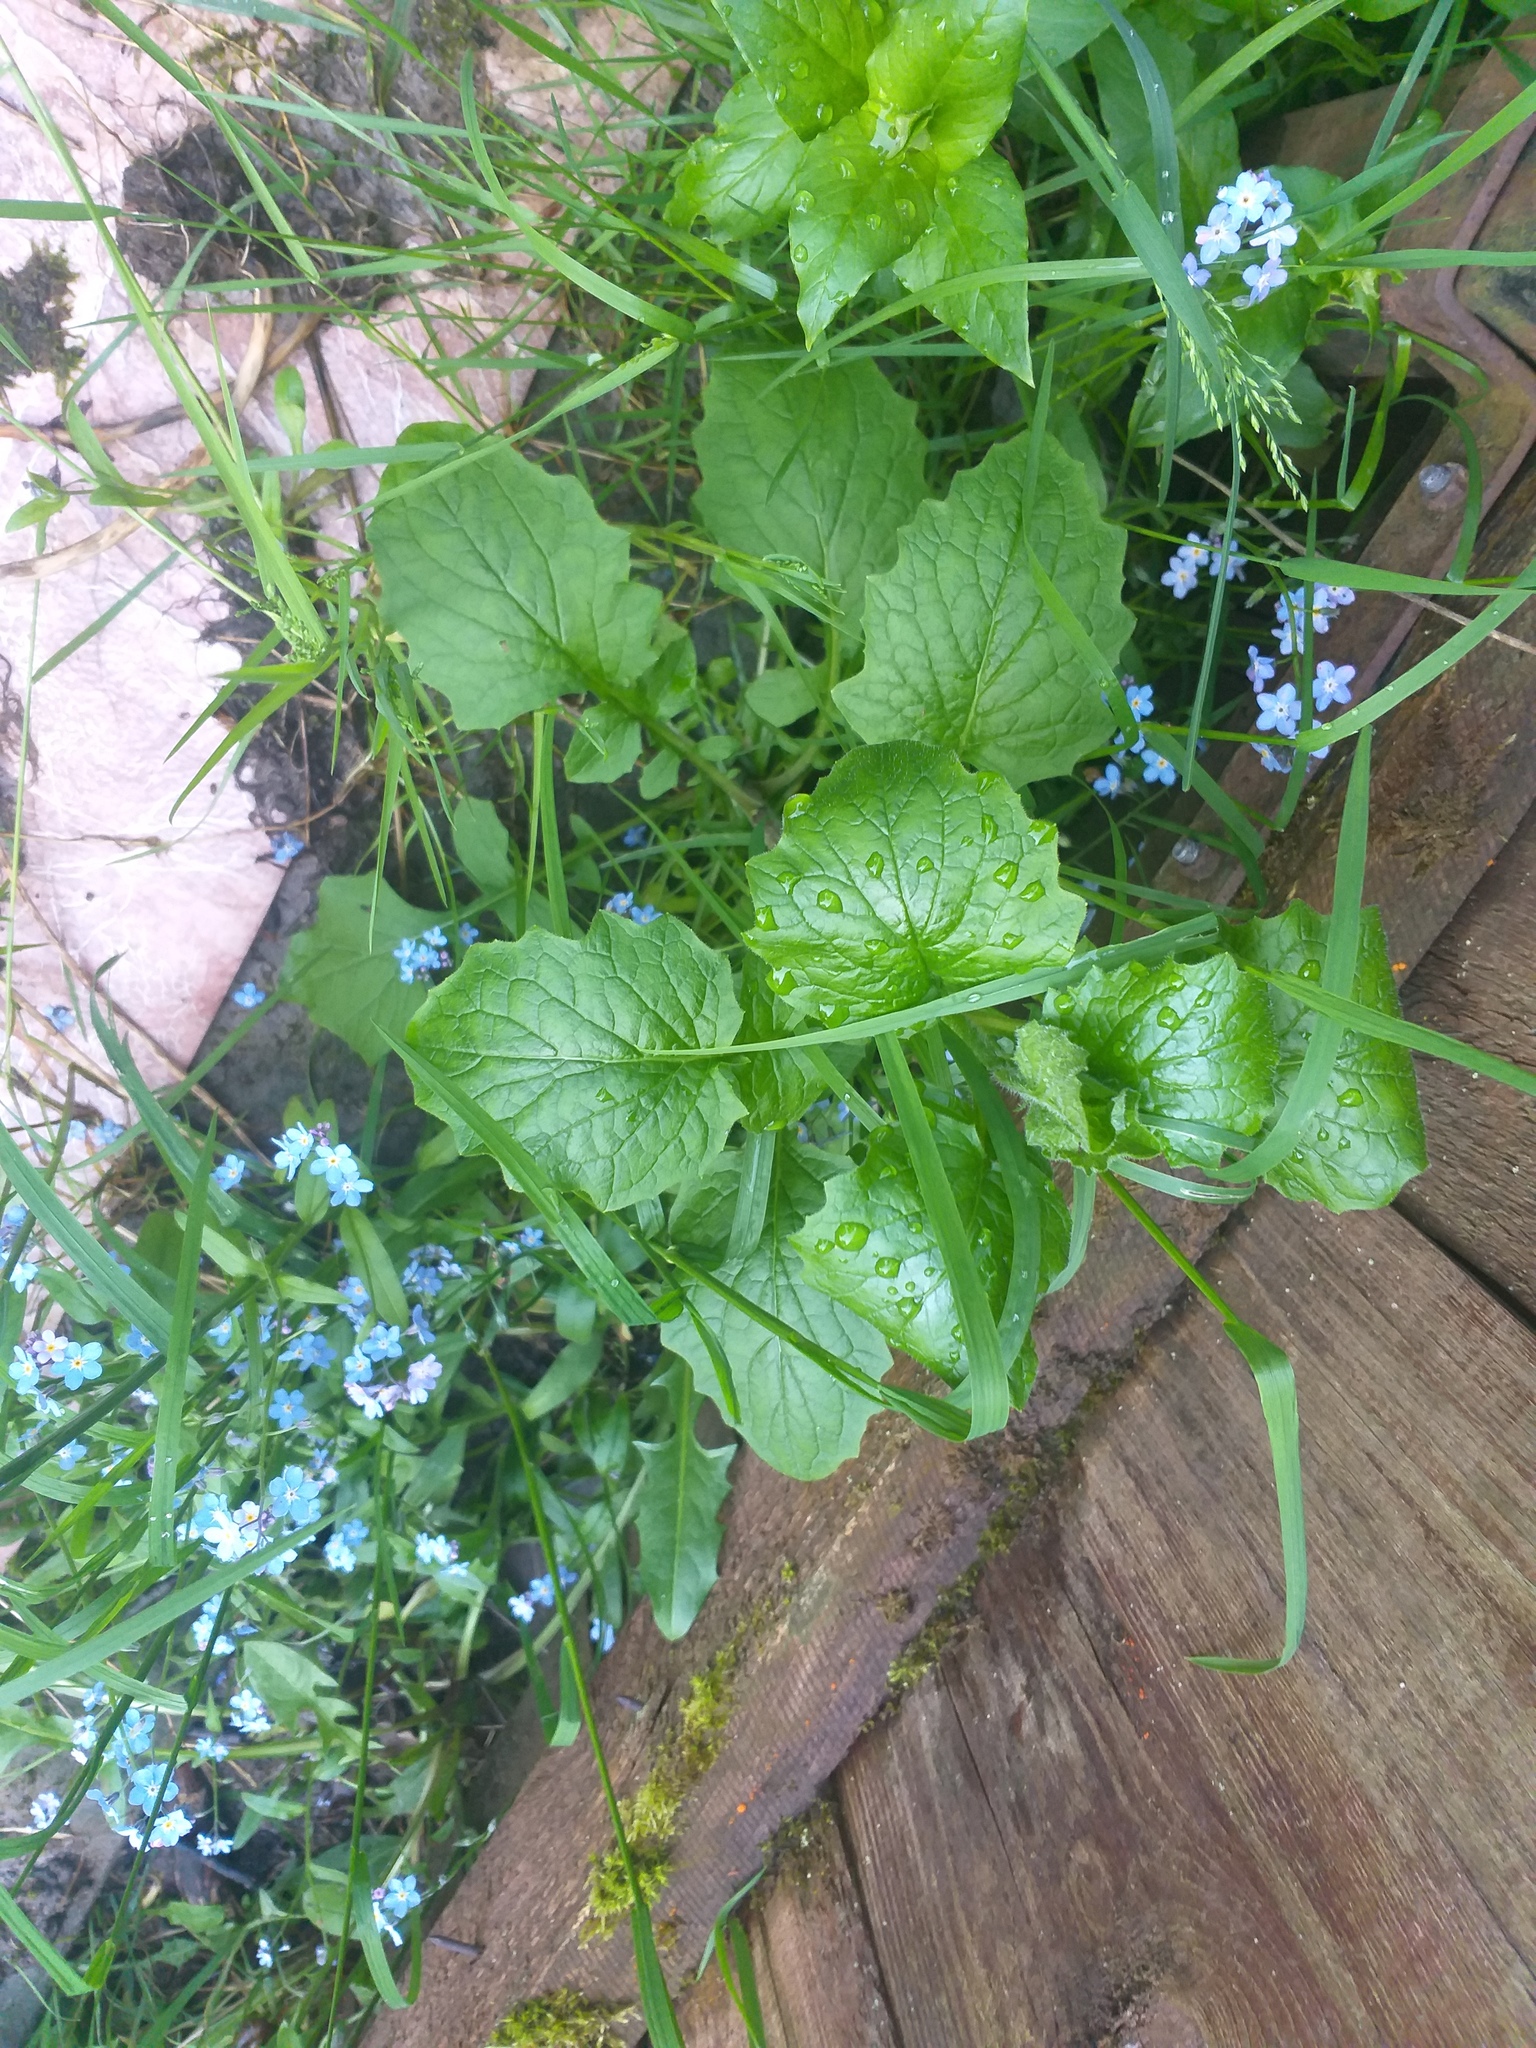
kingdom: Plantae
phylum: Tracheophyta
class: Magnoliopsida
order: Asterales
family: Asteraceae
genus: Lapsana
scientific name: Lapsana communis
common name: Nipplewort
